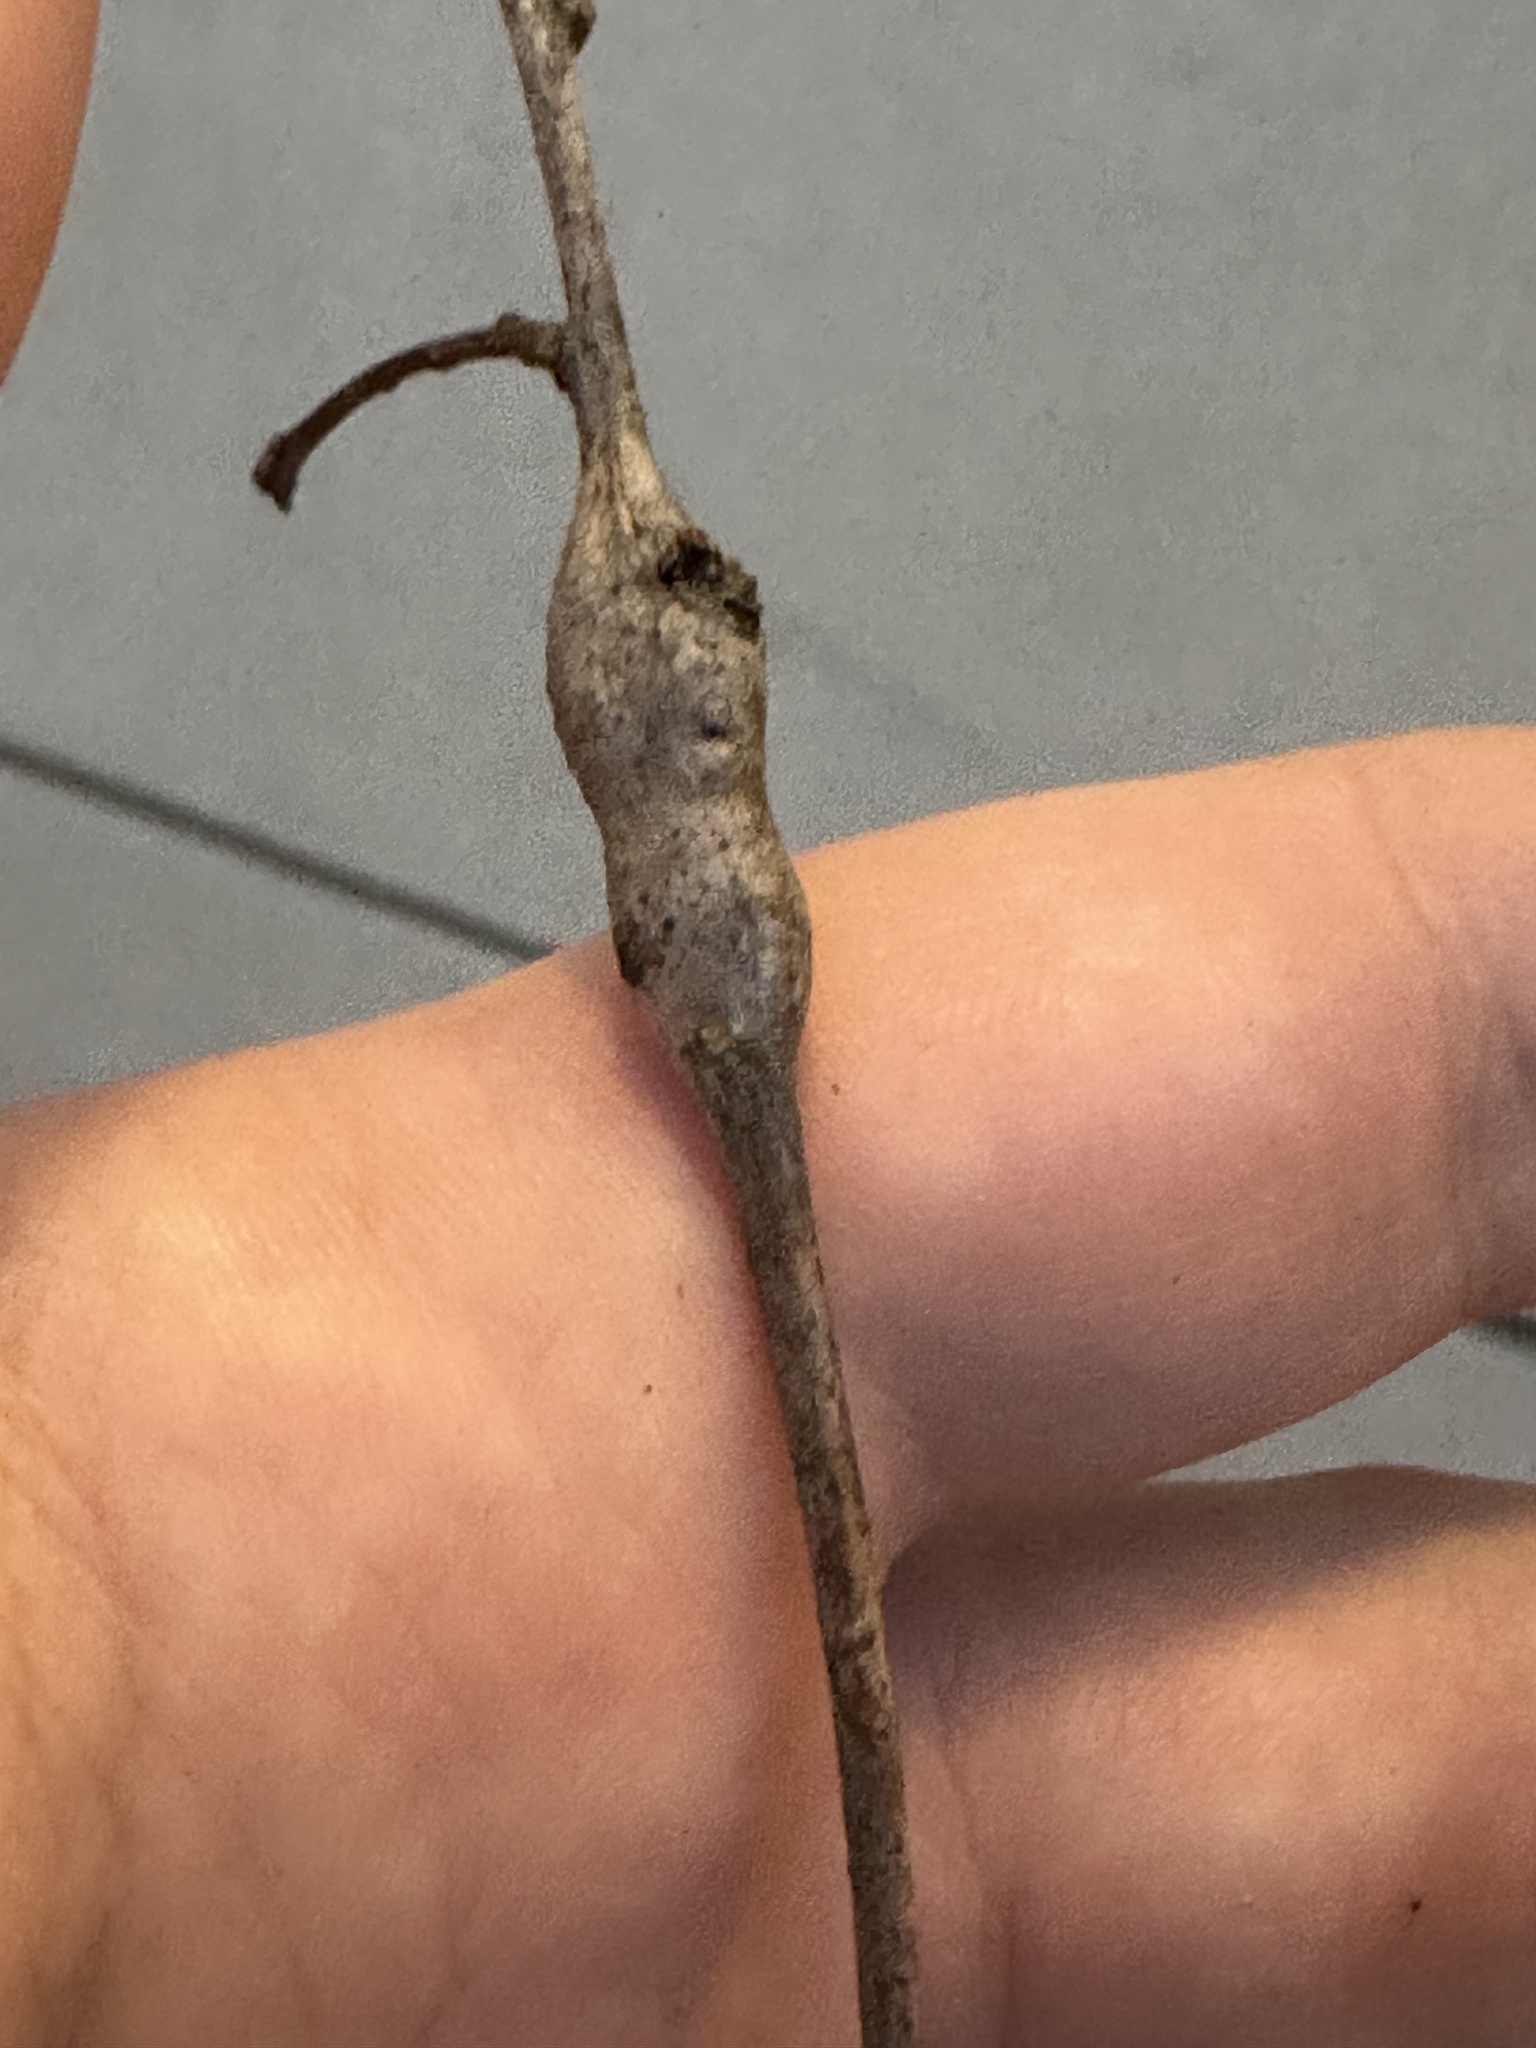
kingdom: Animalia
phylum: Arthropoda
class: Insecta
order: Hymenoptera
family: Cynipidae
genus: Neuroterus
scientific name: Neuroterus quercusbaccarum
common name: Common spangle gall
